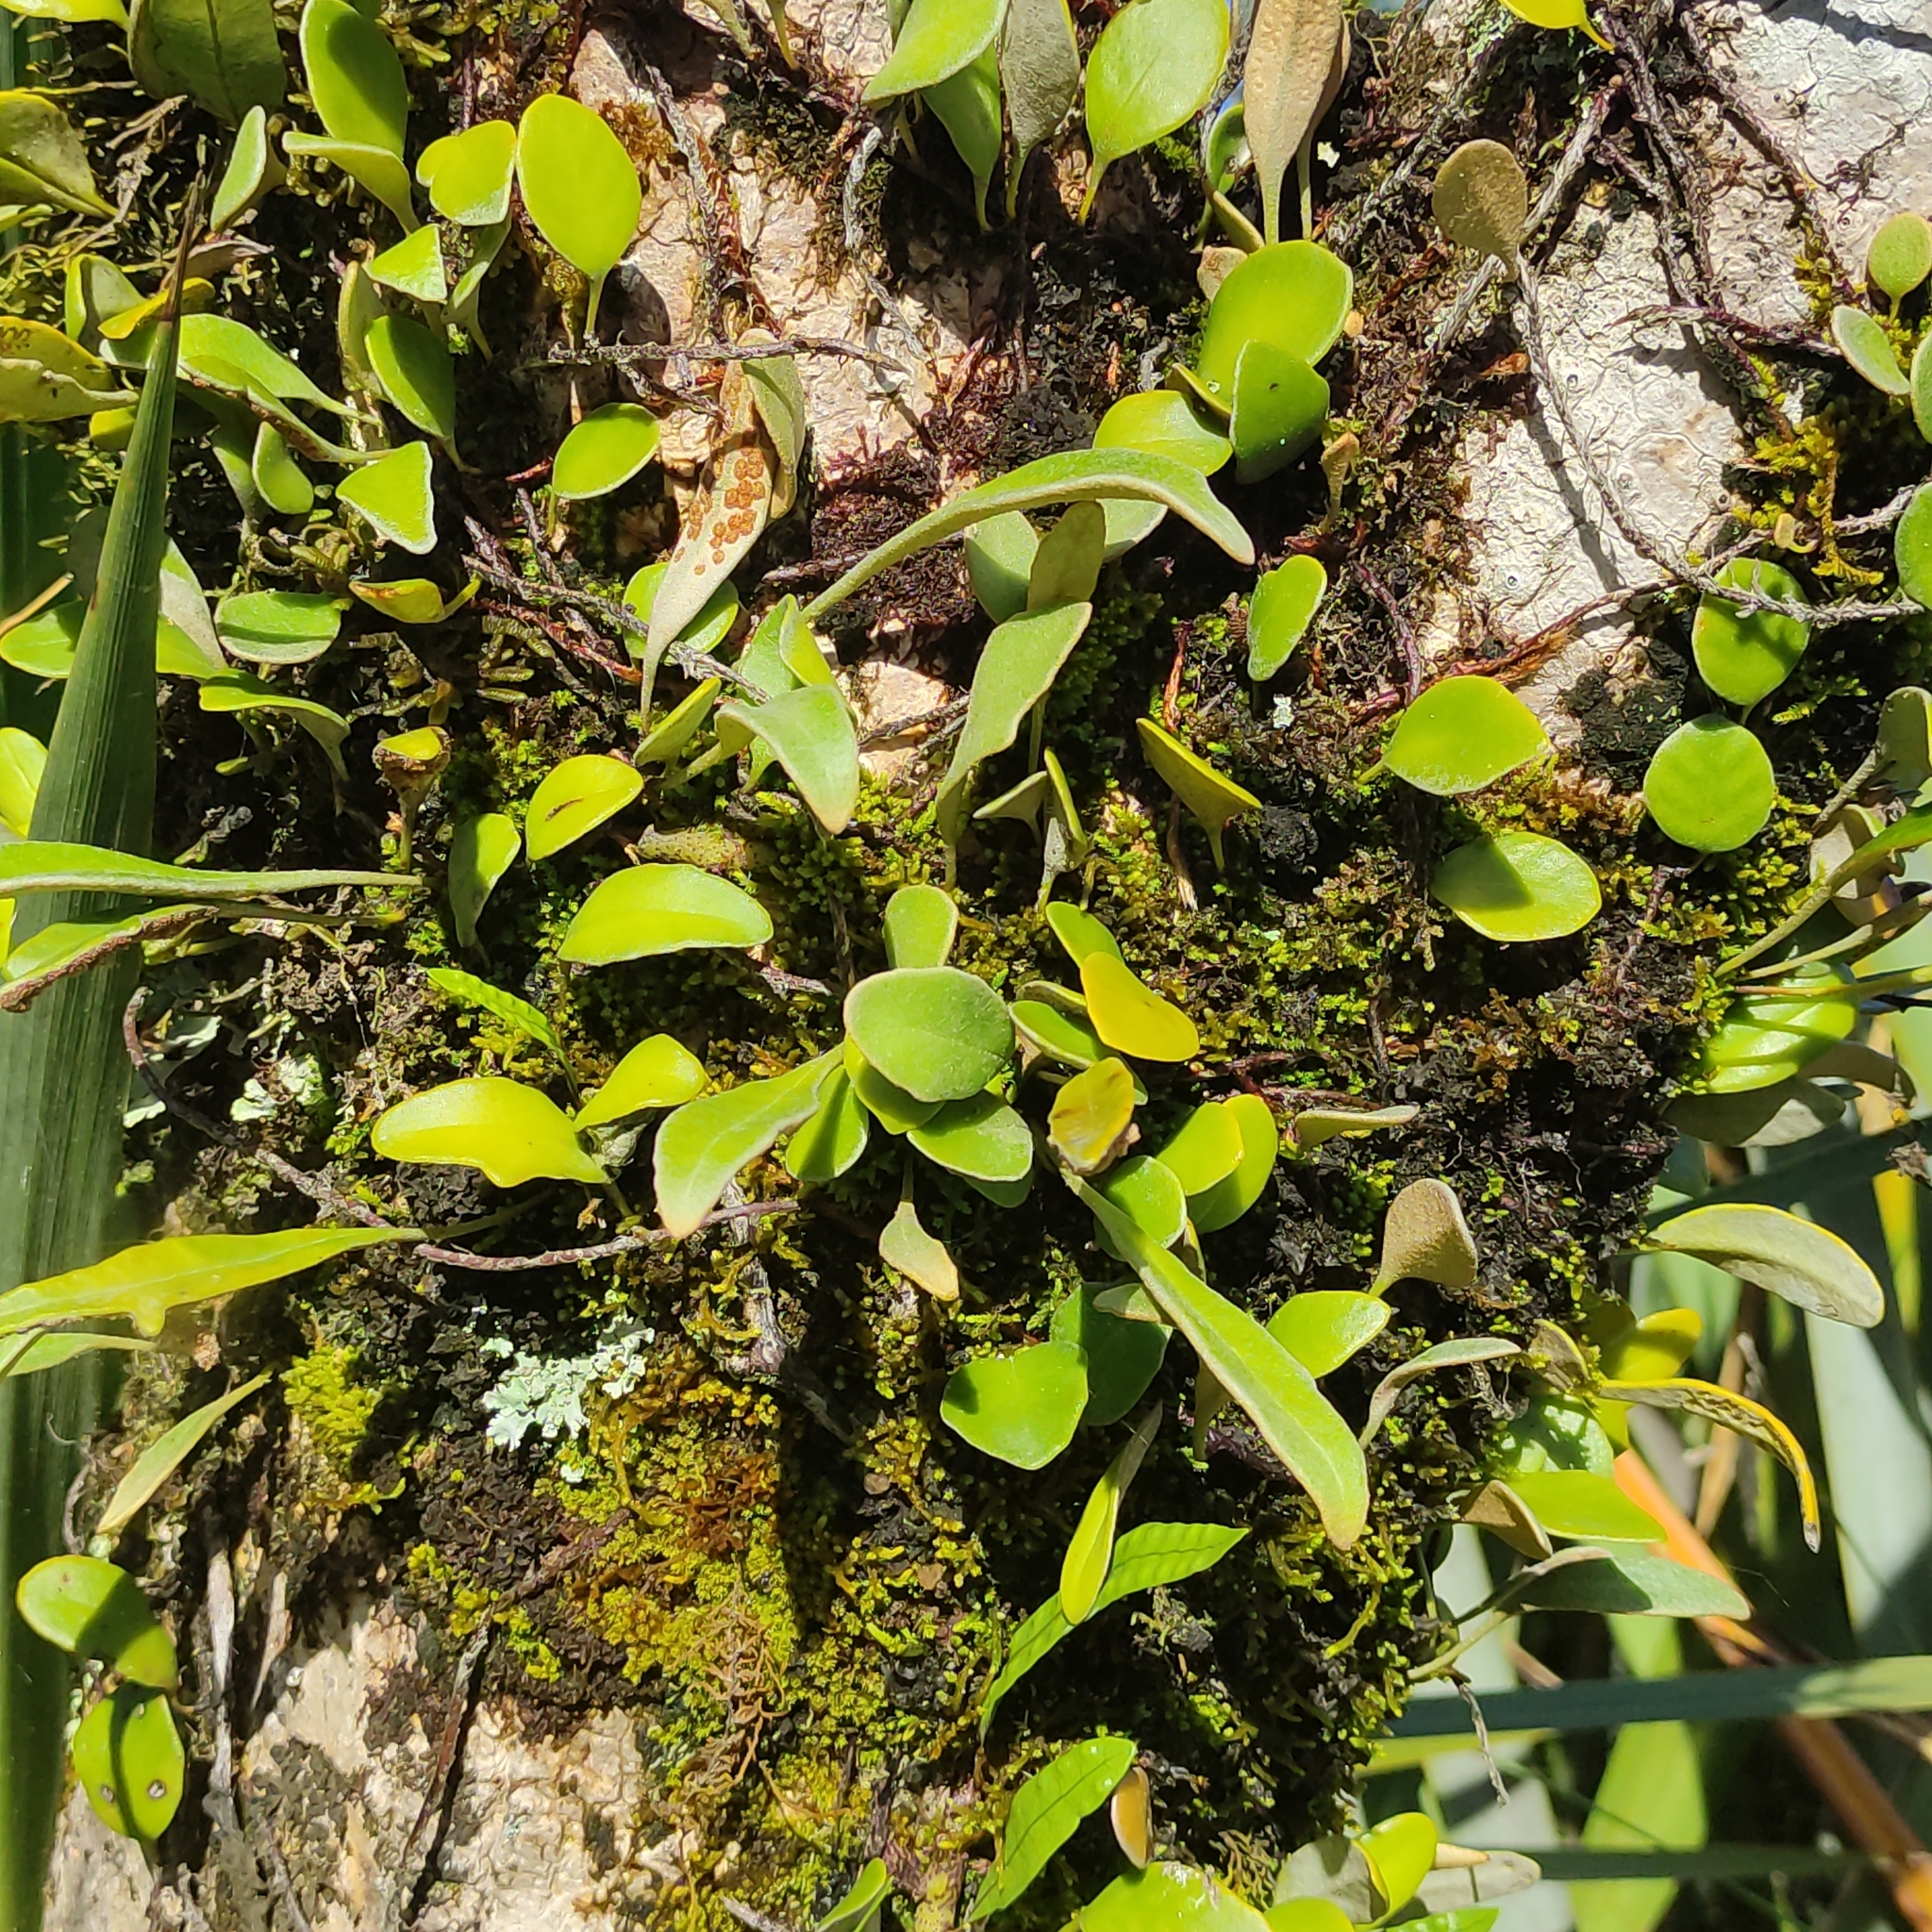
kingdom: Plantae
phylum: Tracheophyta
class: Polypodiopsida
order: Polypodiales
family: Polypodiaceae
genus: Pyrrosia
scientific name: Pyrrosia eleagnifolia
